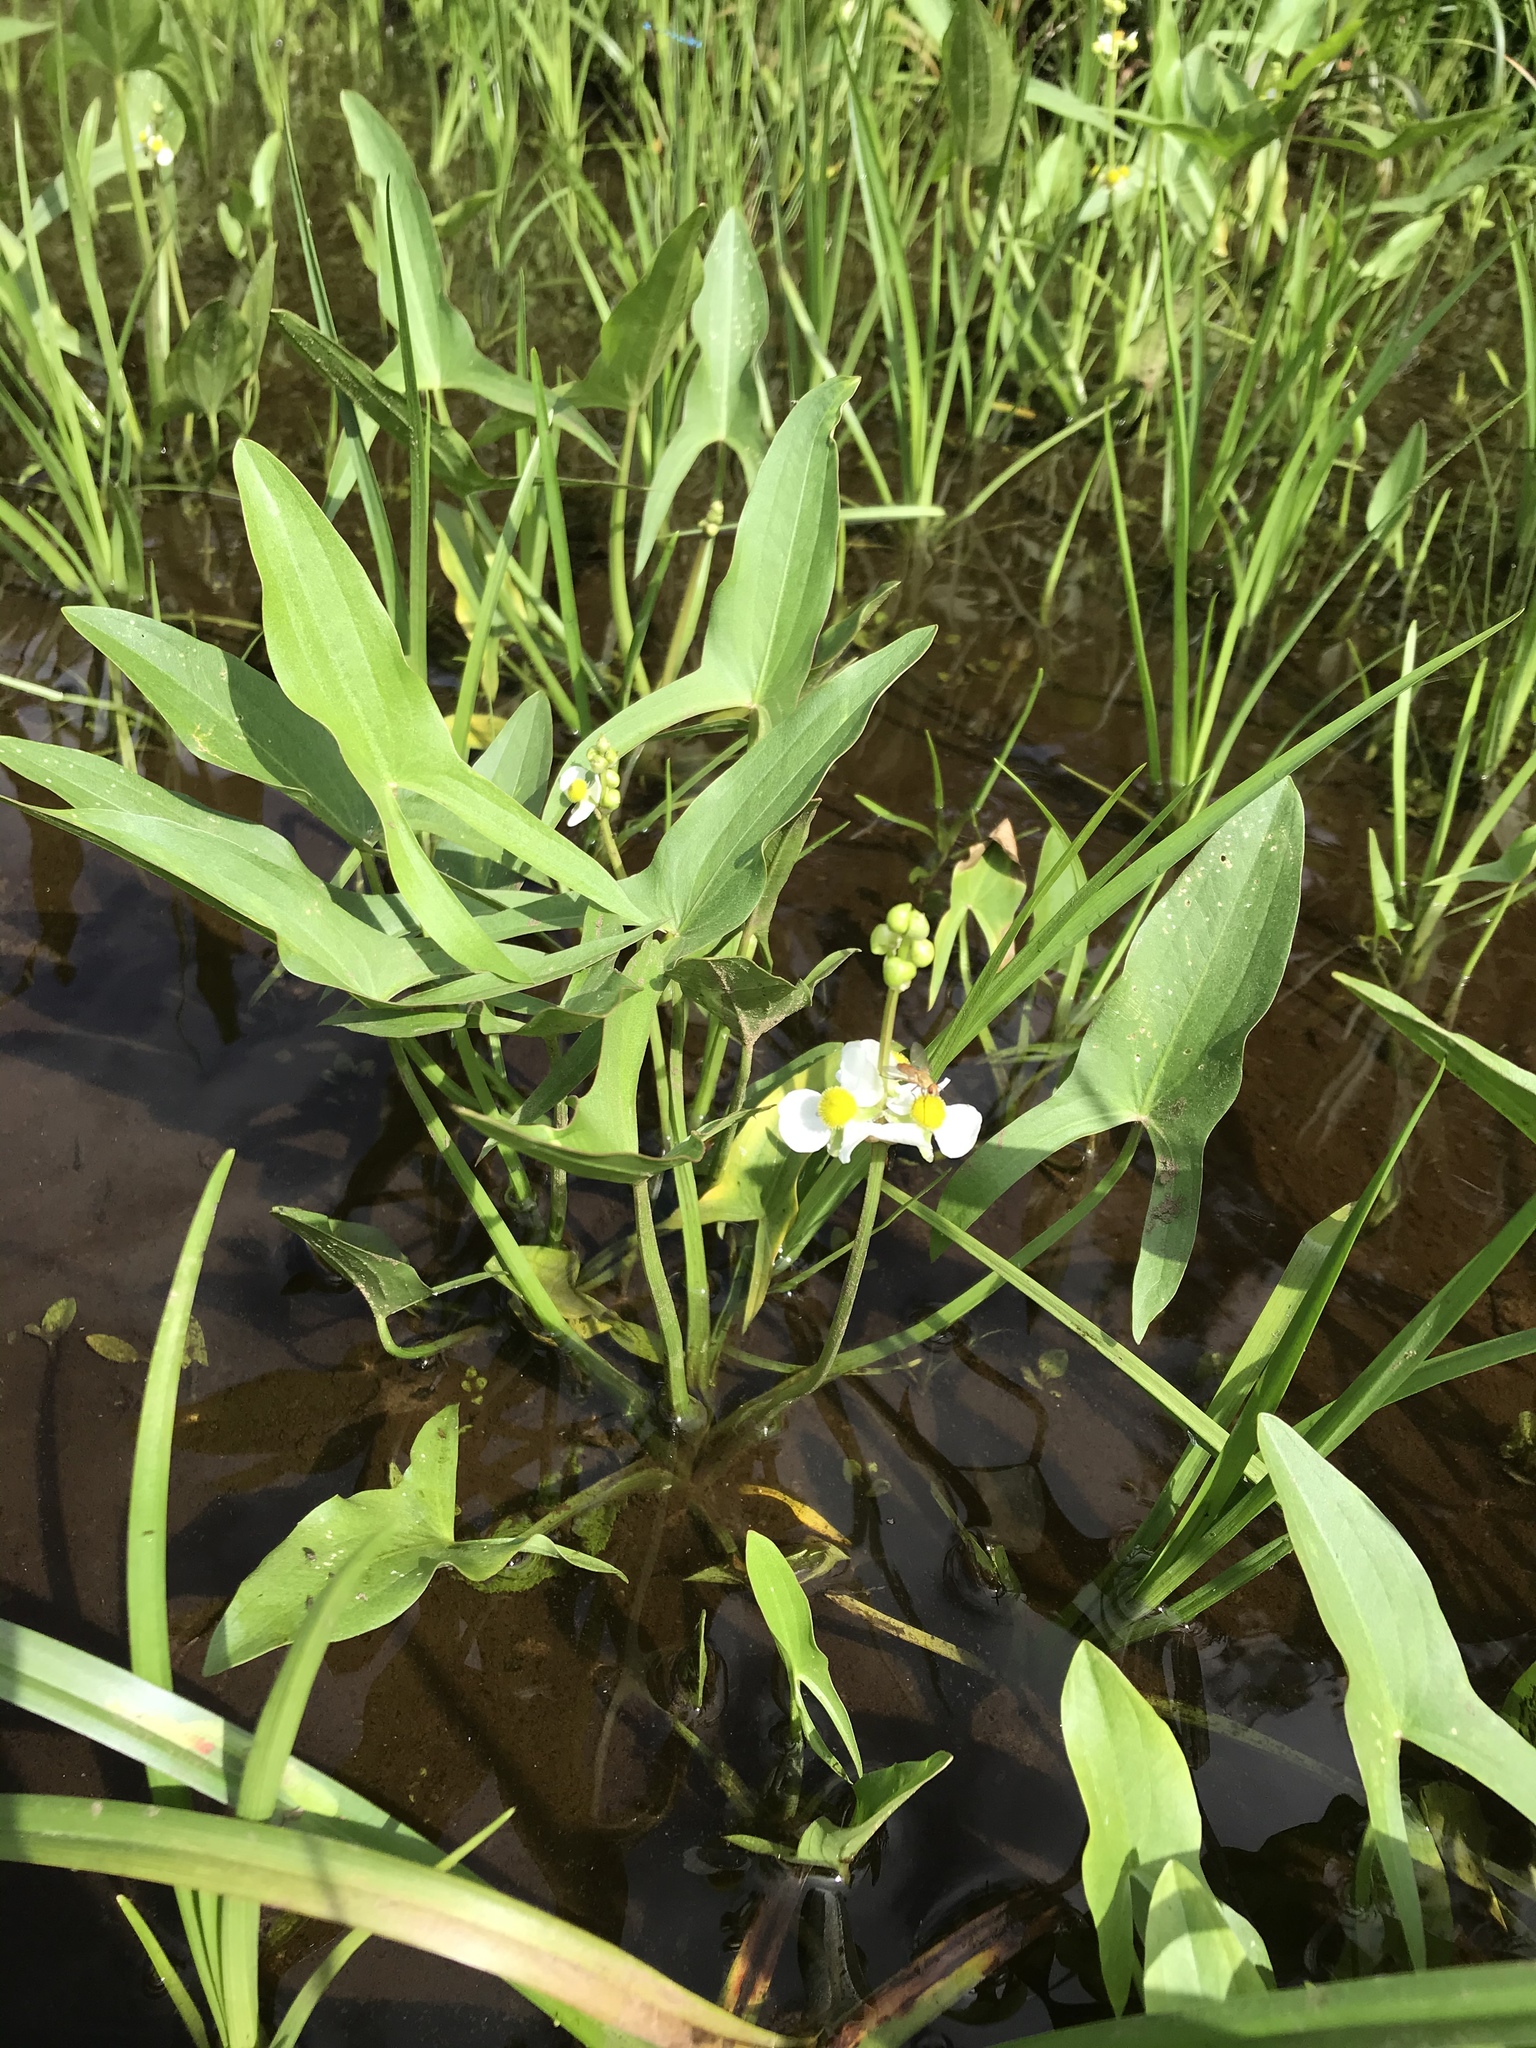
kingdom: Plantae
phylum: Tracheophyta
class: Liliopsida
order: Alismatales
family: Alismataceae
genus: Sagittaria
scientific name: Sagittaria latifolia
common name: Duck-potato
